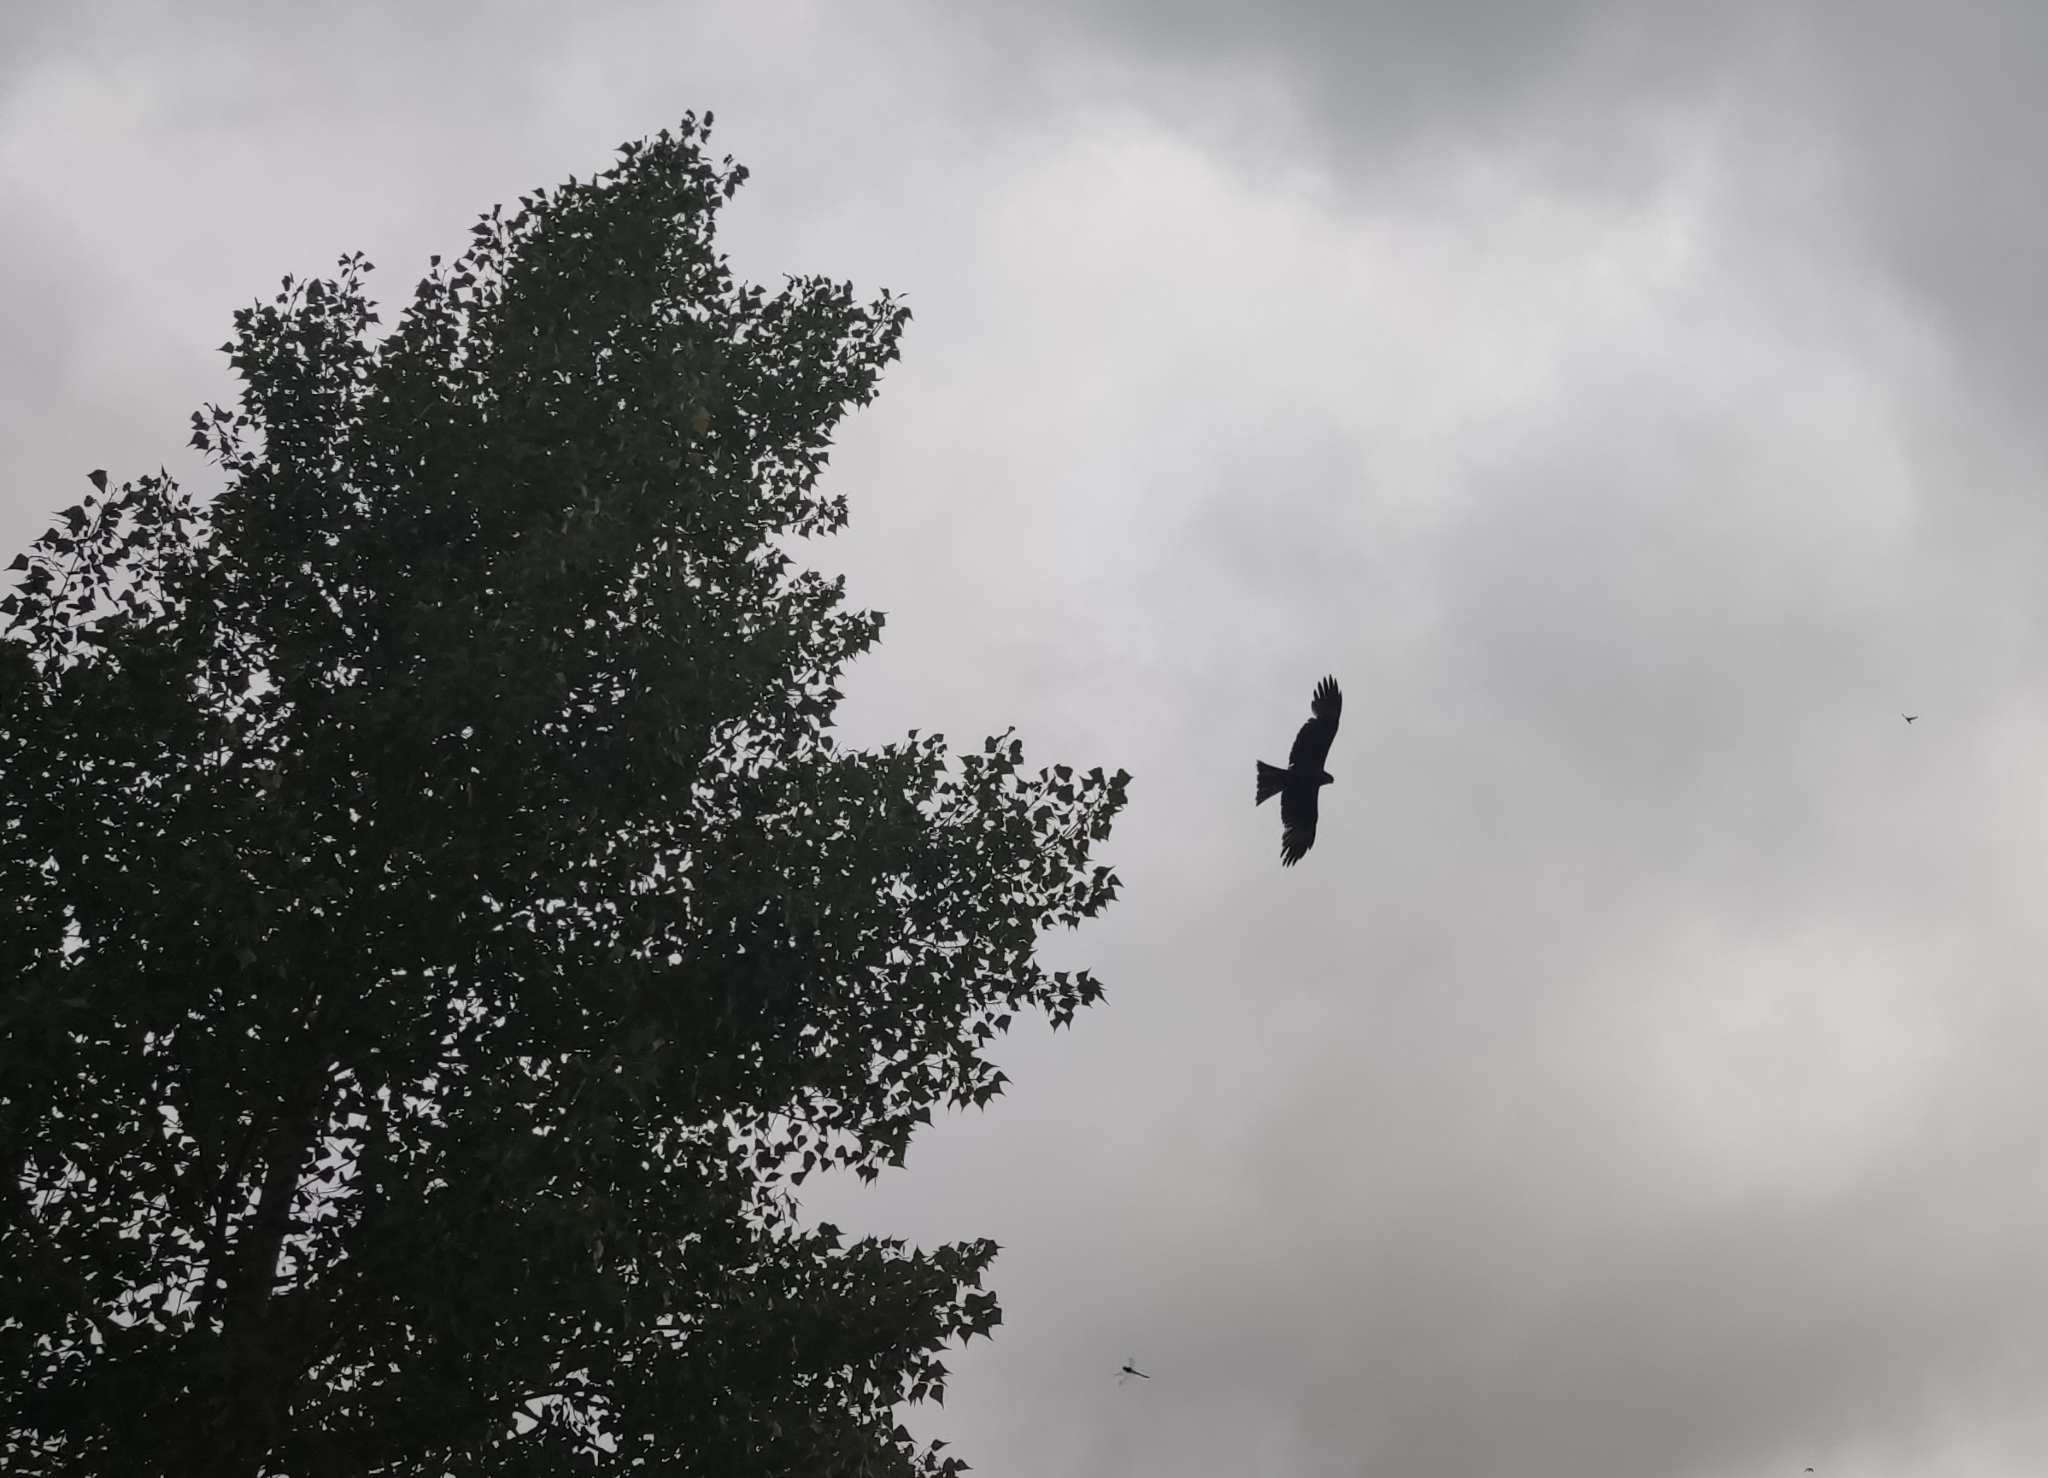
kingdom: Animalia
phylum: Chordata
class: Aves
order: Accipitriformes
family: Accipitridae
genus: Milvus
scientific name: Milvus migrans
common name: Black kite
